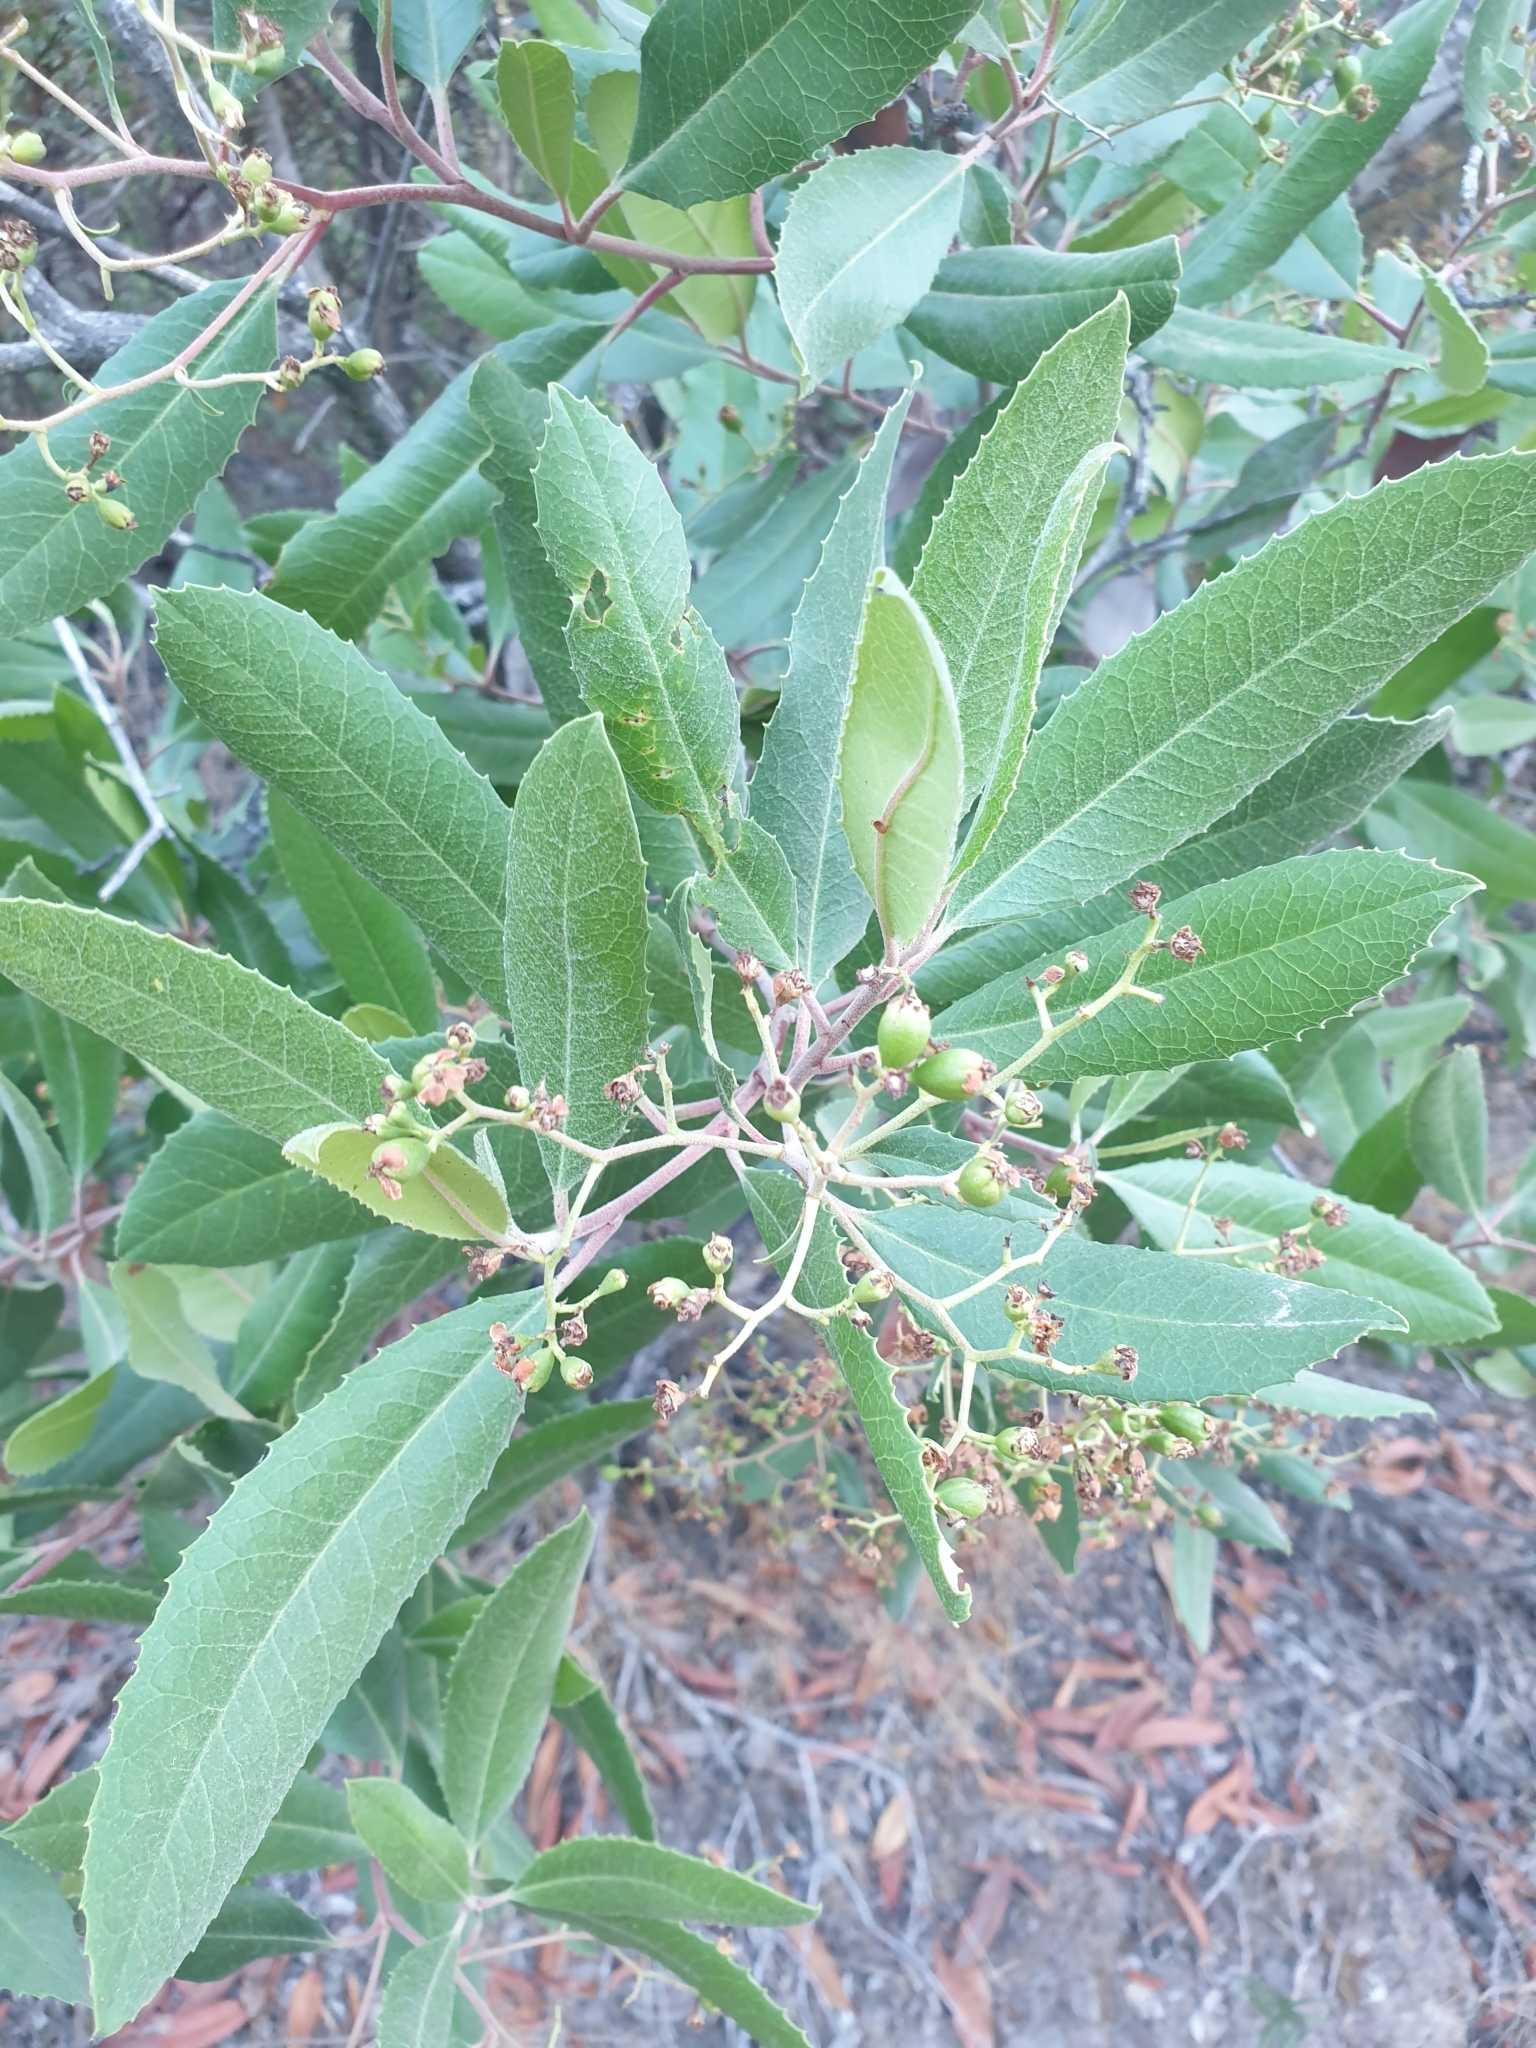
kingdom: Plantae
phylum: Tracheophyta
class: Magnoliopsida
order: Rosales
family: Rosaceae
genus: Heteromeles
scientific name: Heteromeles arbutifolia
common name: California-holly
